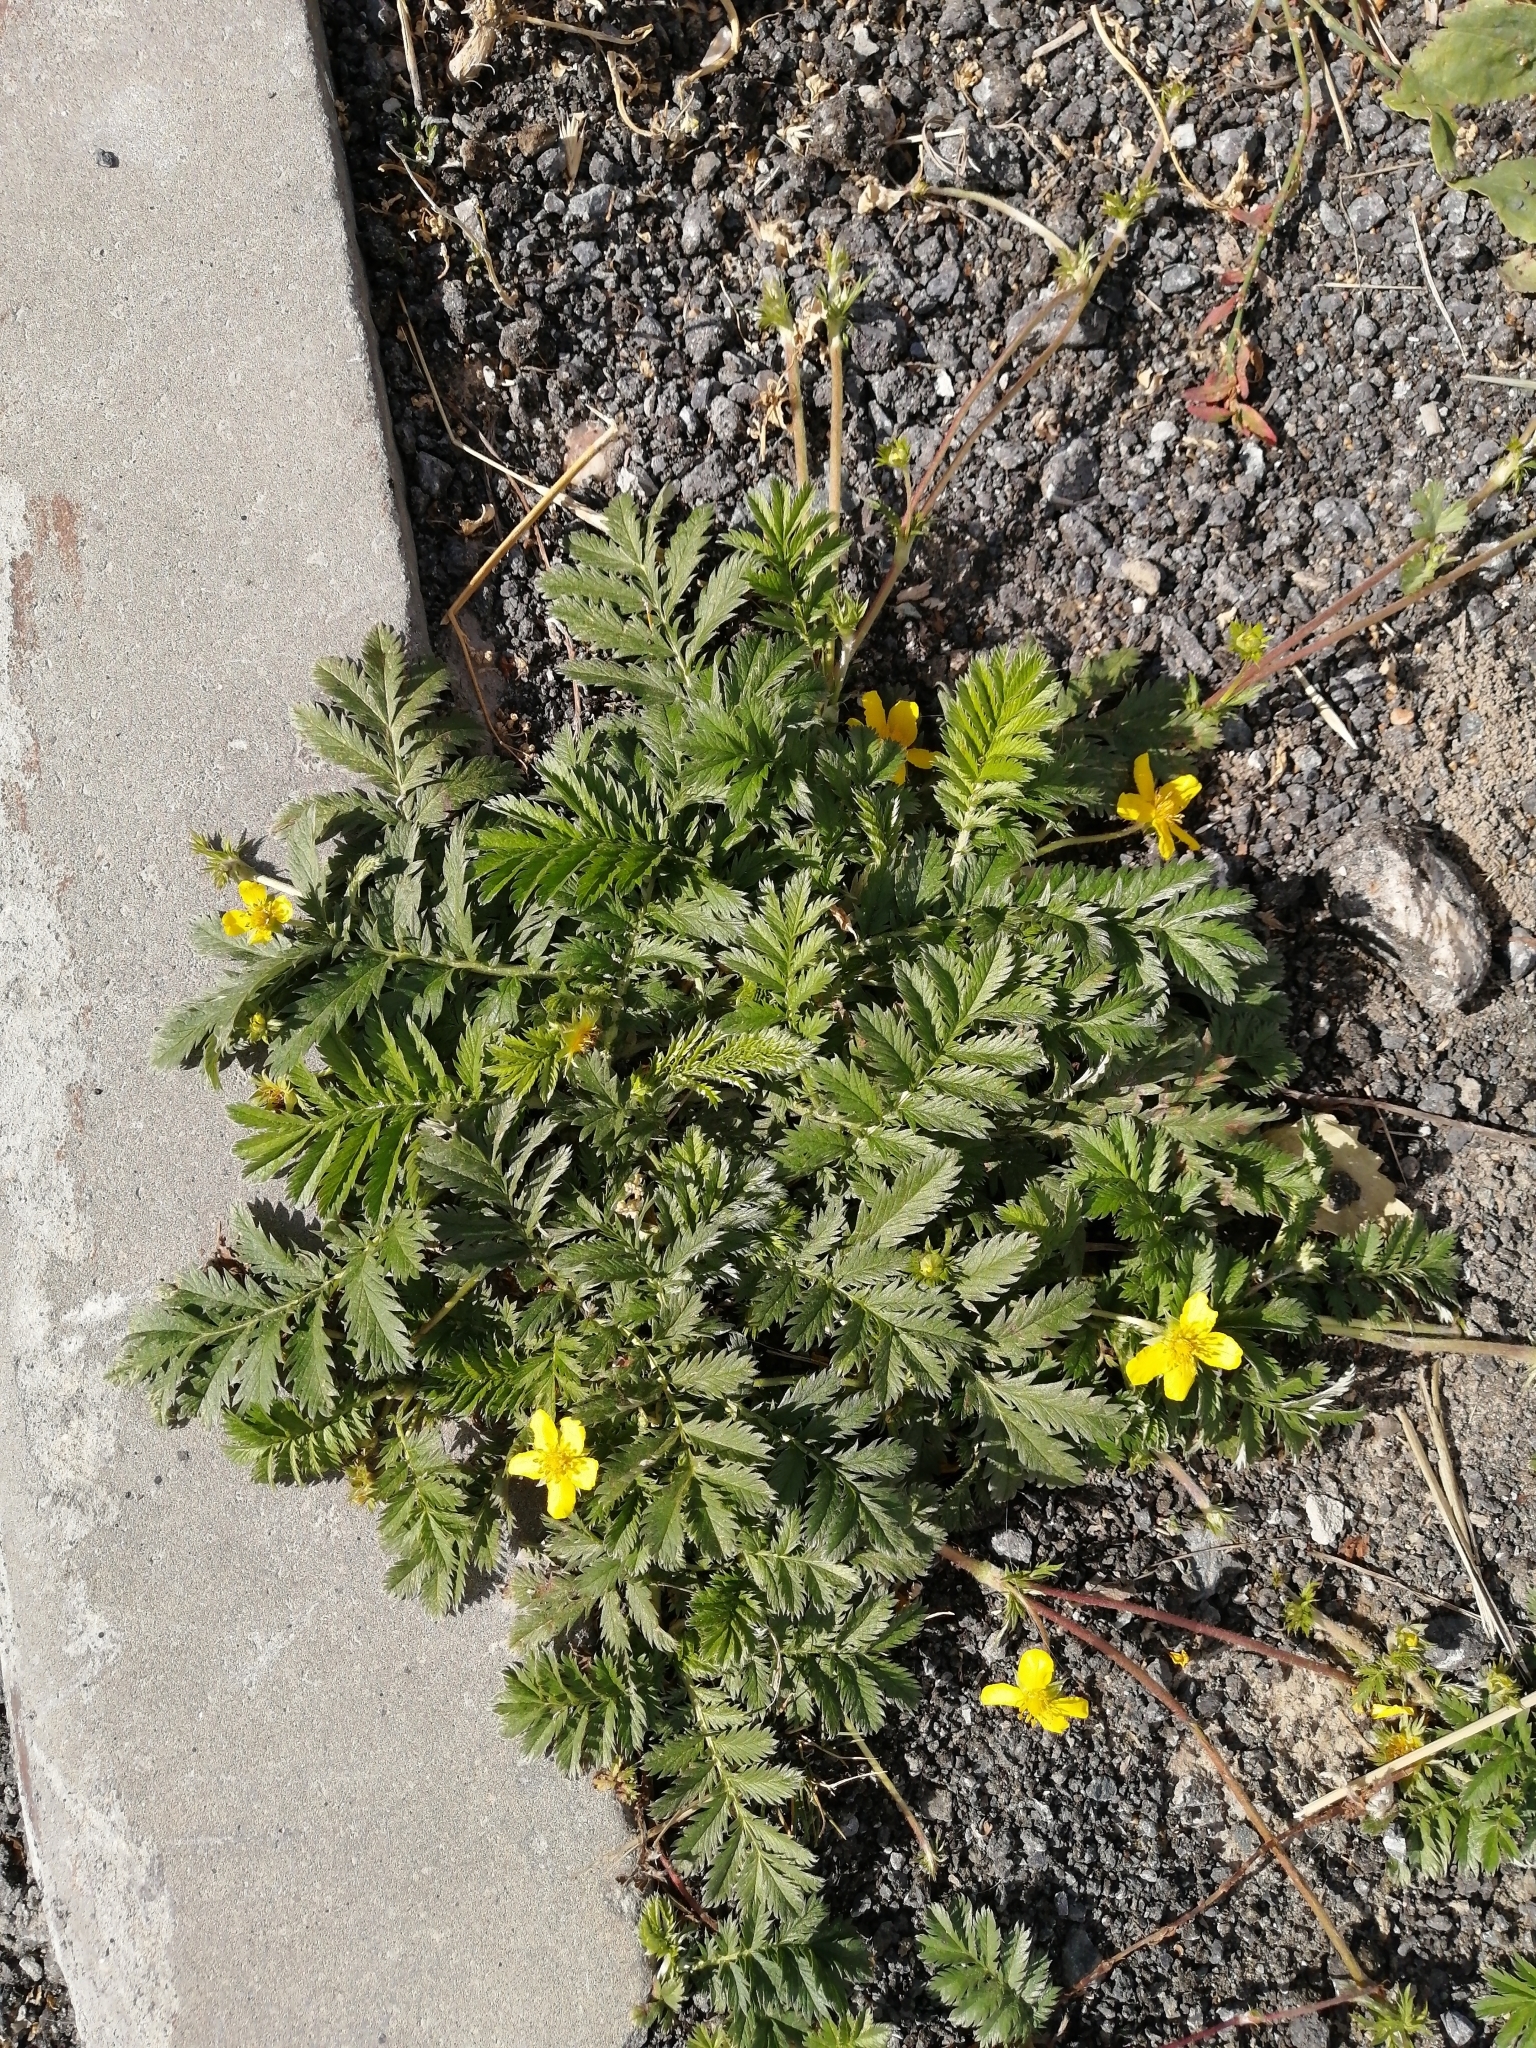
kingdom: Plantae
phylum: Tracheophyta
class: Magnoliopsida
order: Rosales
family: Rosaceae
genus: Argentina
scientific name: Argentina anserina
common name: Common silverweed
